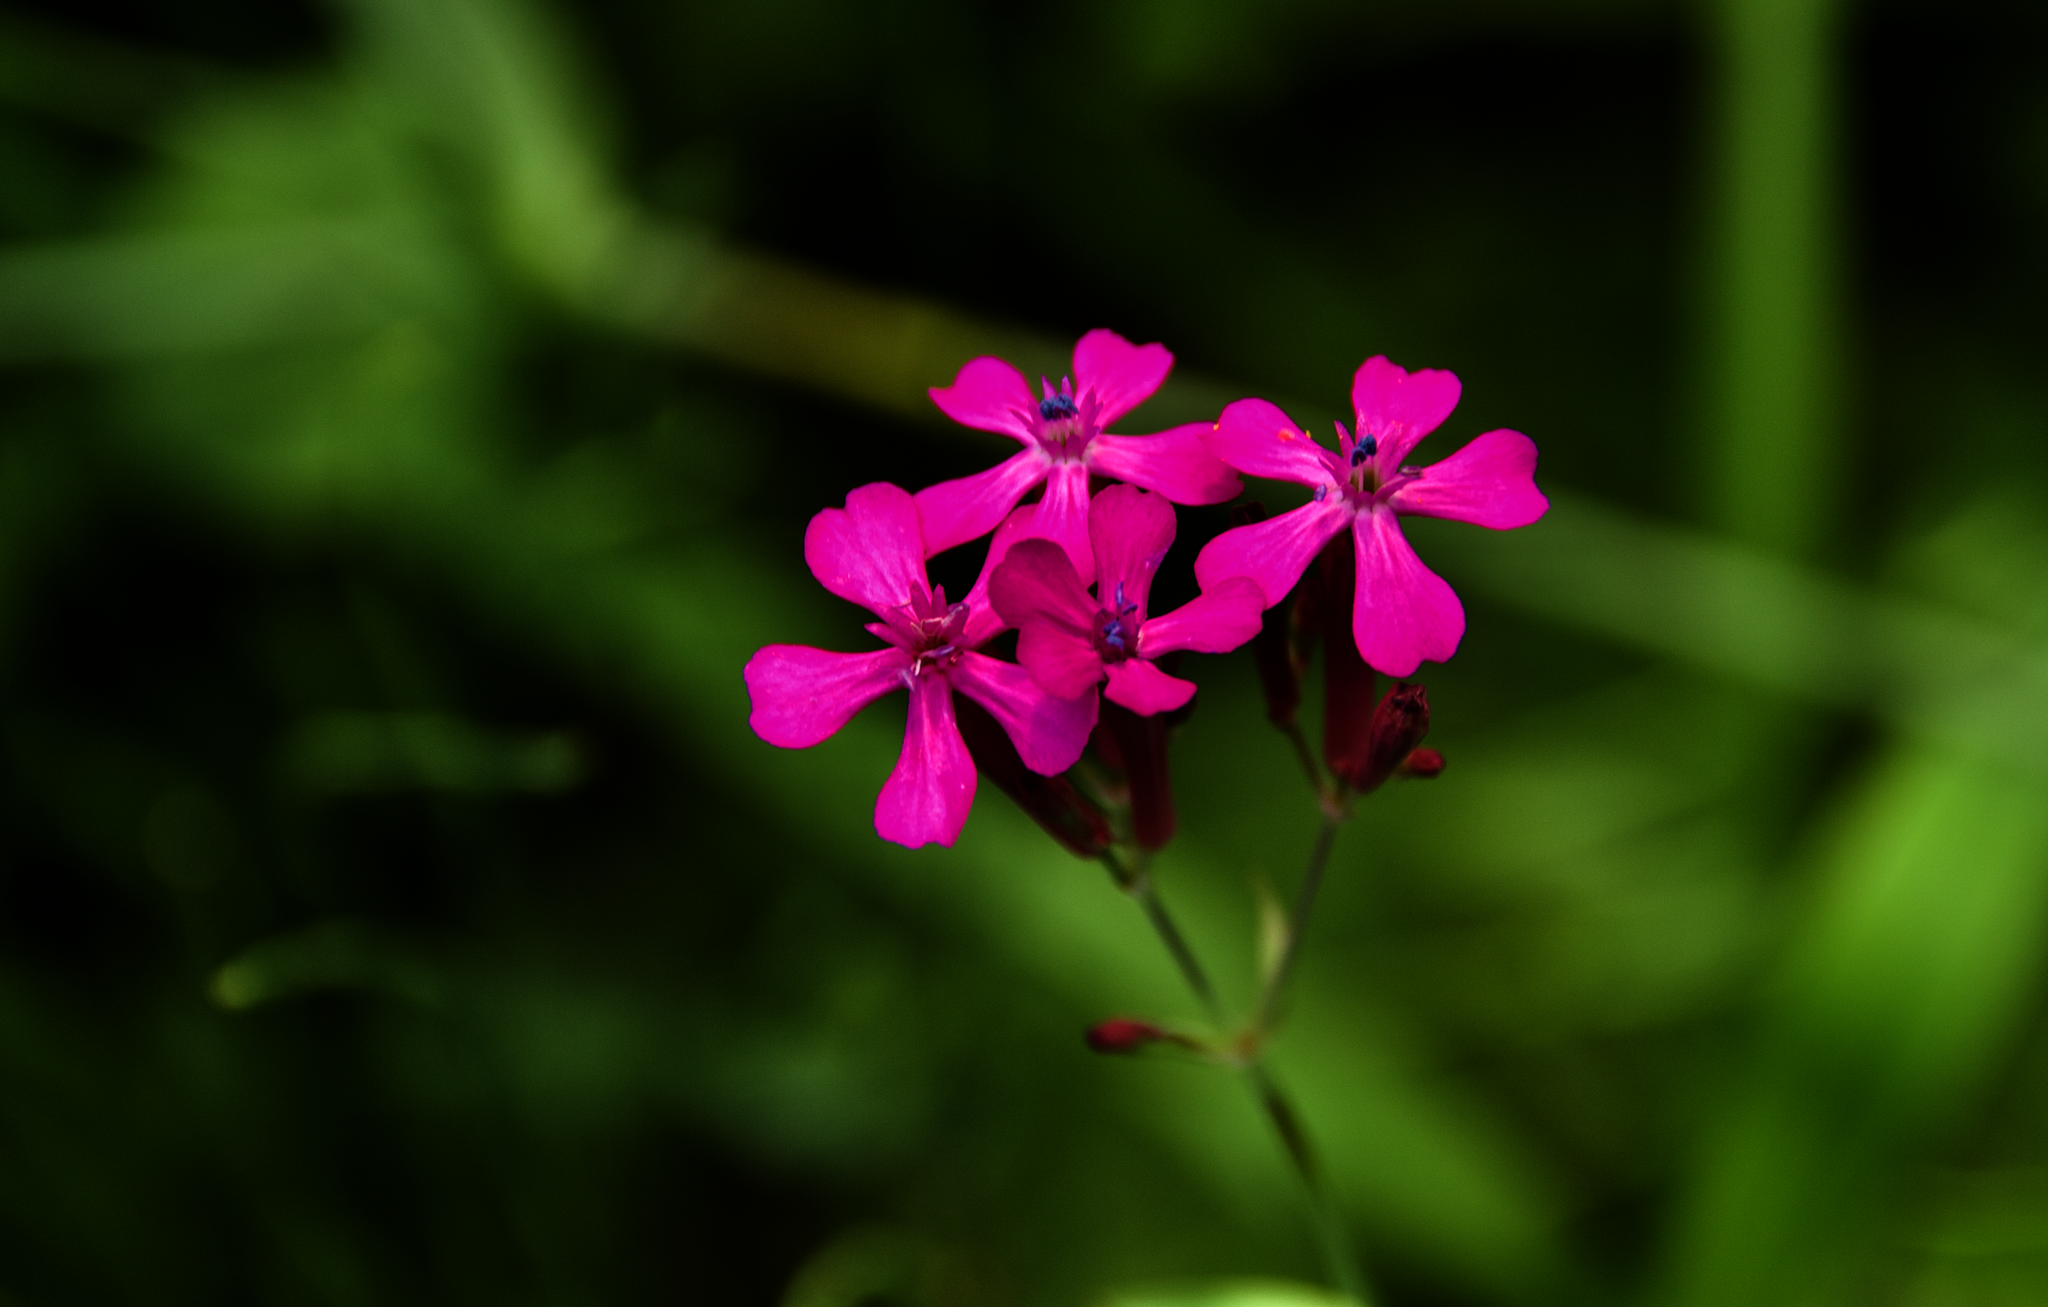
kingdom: Plantae
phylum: Tracheophyta
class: Magnoliopsida
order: Caryophyllales
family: Caryophyllaceae
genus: Atocion
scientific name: Atocion armeria
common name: Sweet william catchfly
